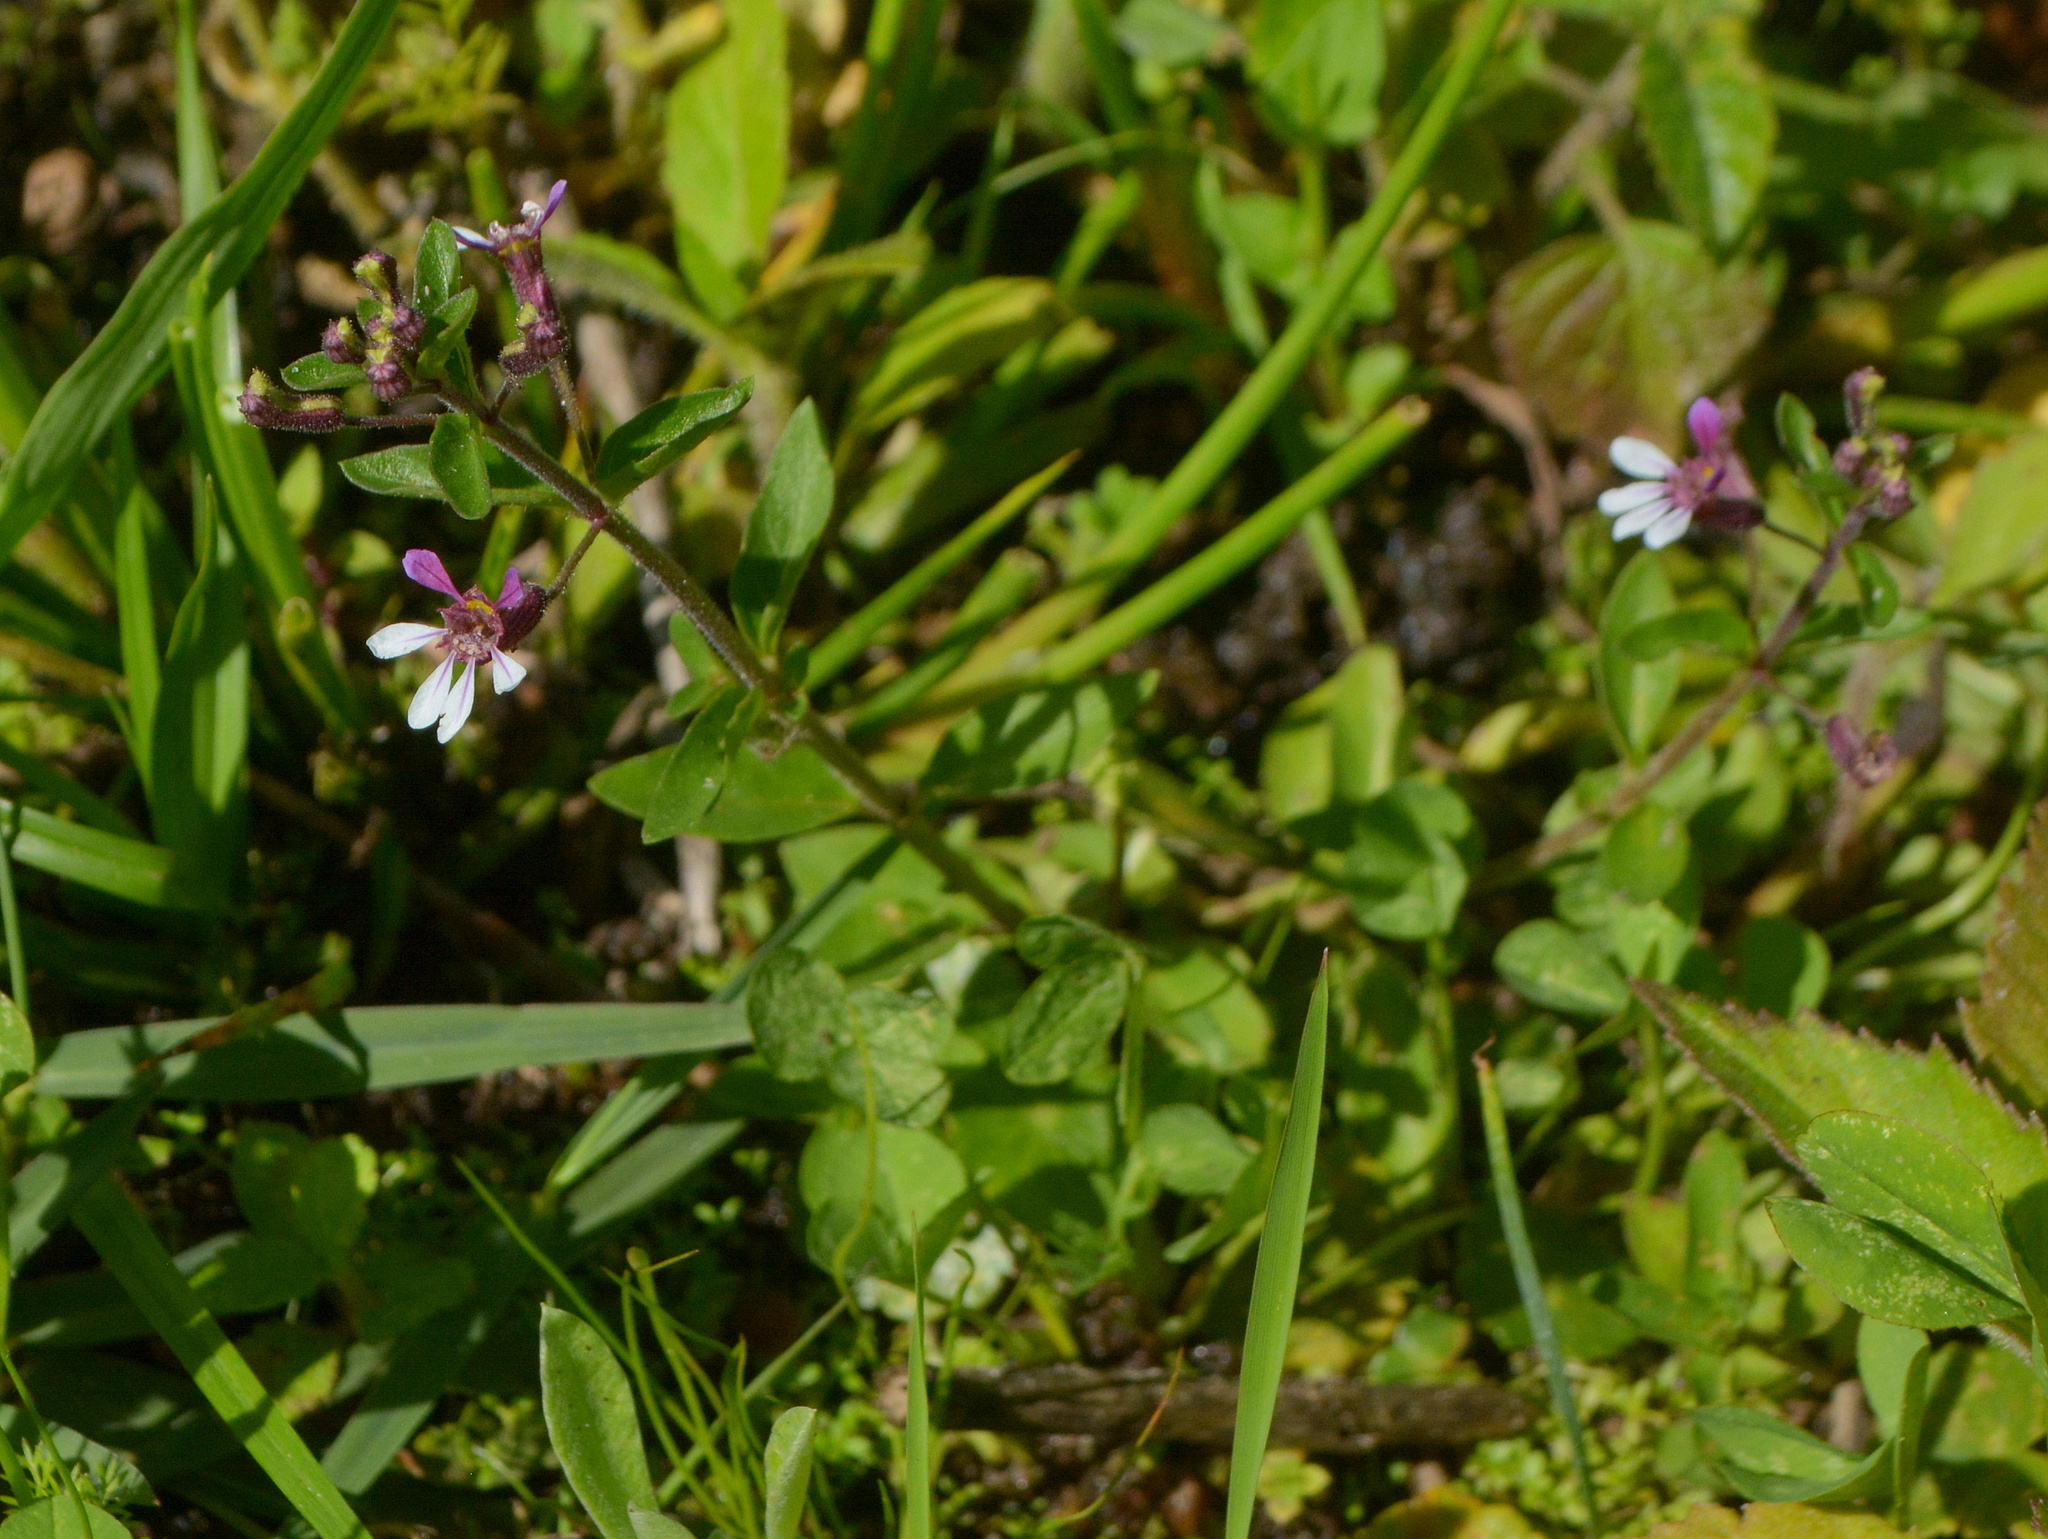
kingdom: Plantae
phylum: Tracheophyta
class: Magnoliopsida
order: Myrtales
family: Lythraceae
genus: Cuphea
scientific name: Cuphea lindmaniana
